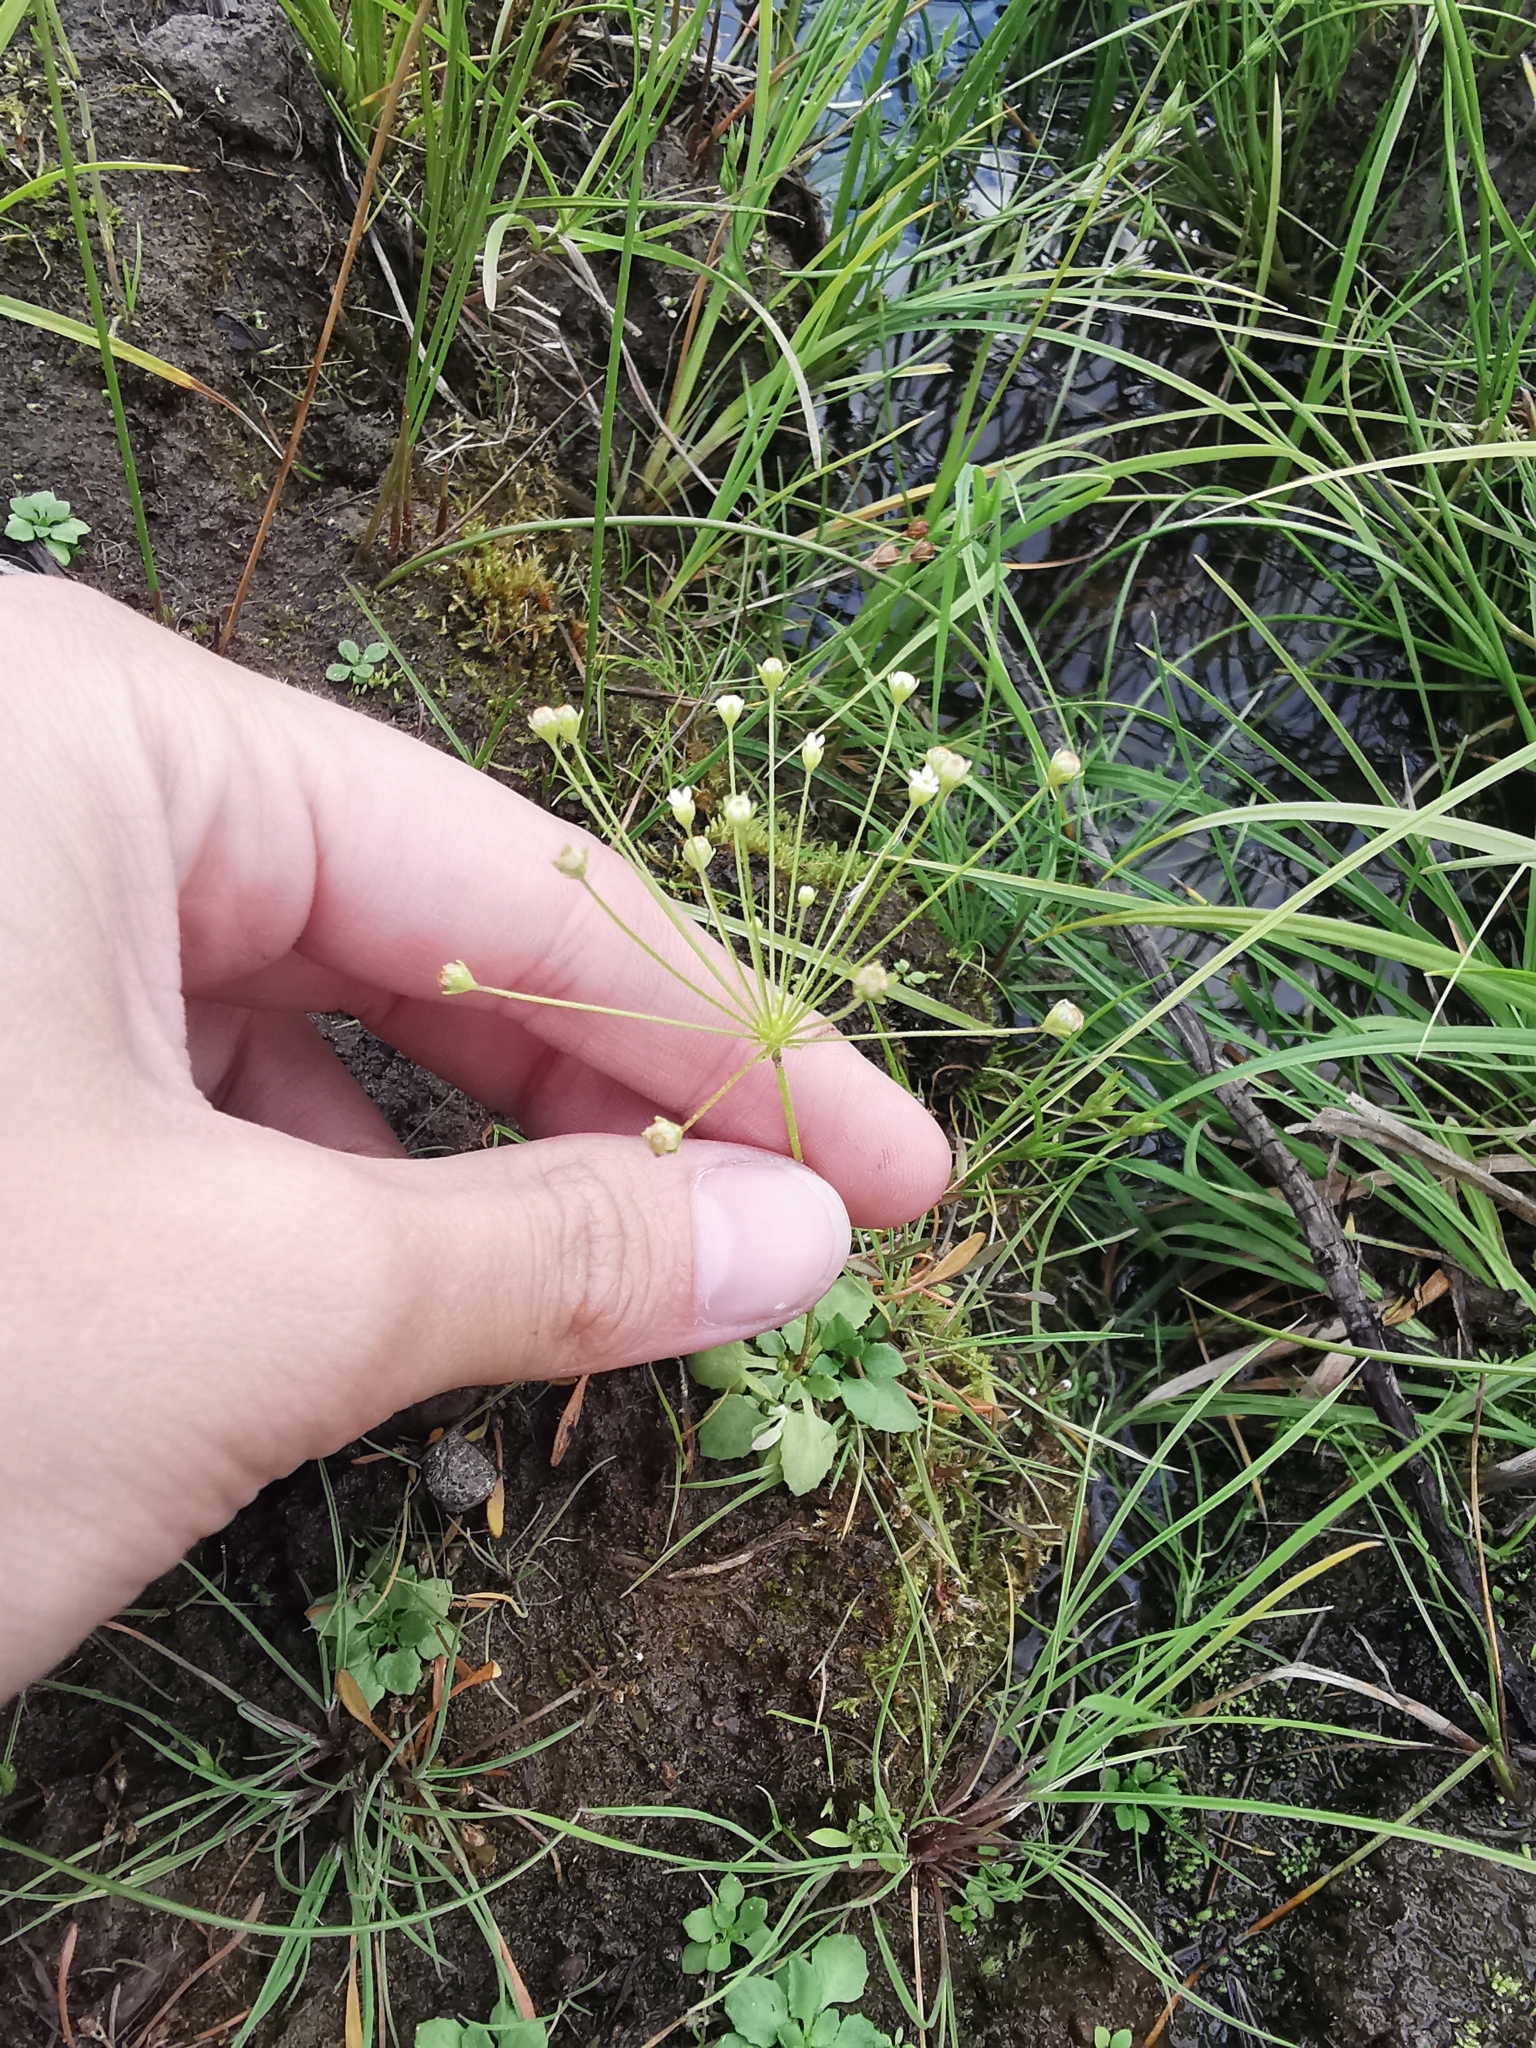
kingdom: Plantae
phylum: Tracheophyta
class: Magnoliopsida
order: Ericales
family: Primulaceae
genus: Androsace
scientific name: Androsace filiformis
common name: Filiform rock jasmine
